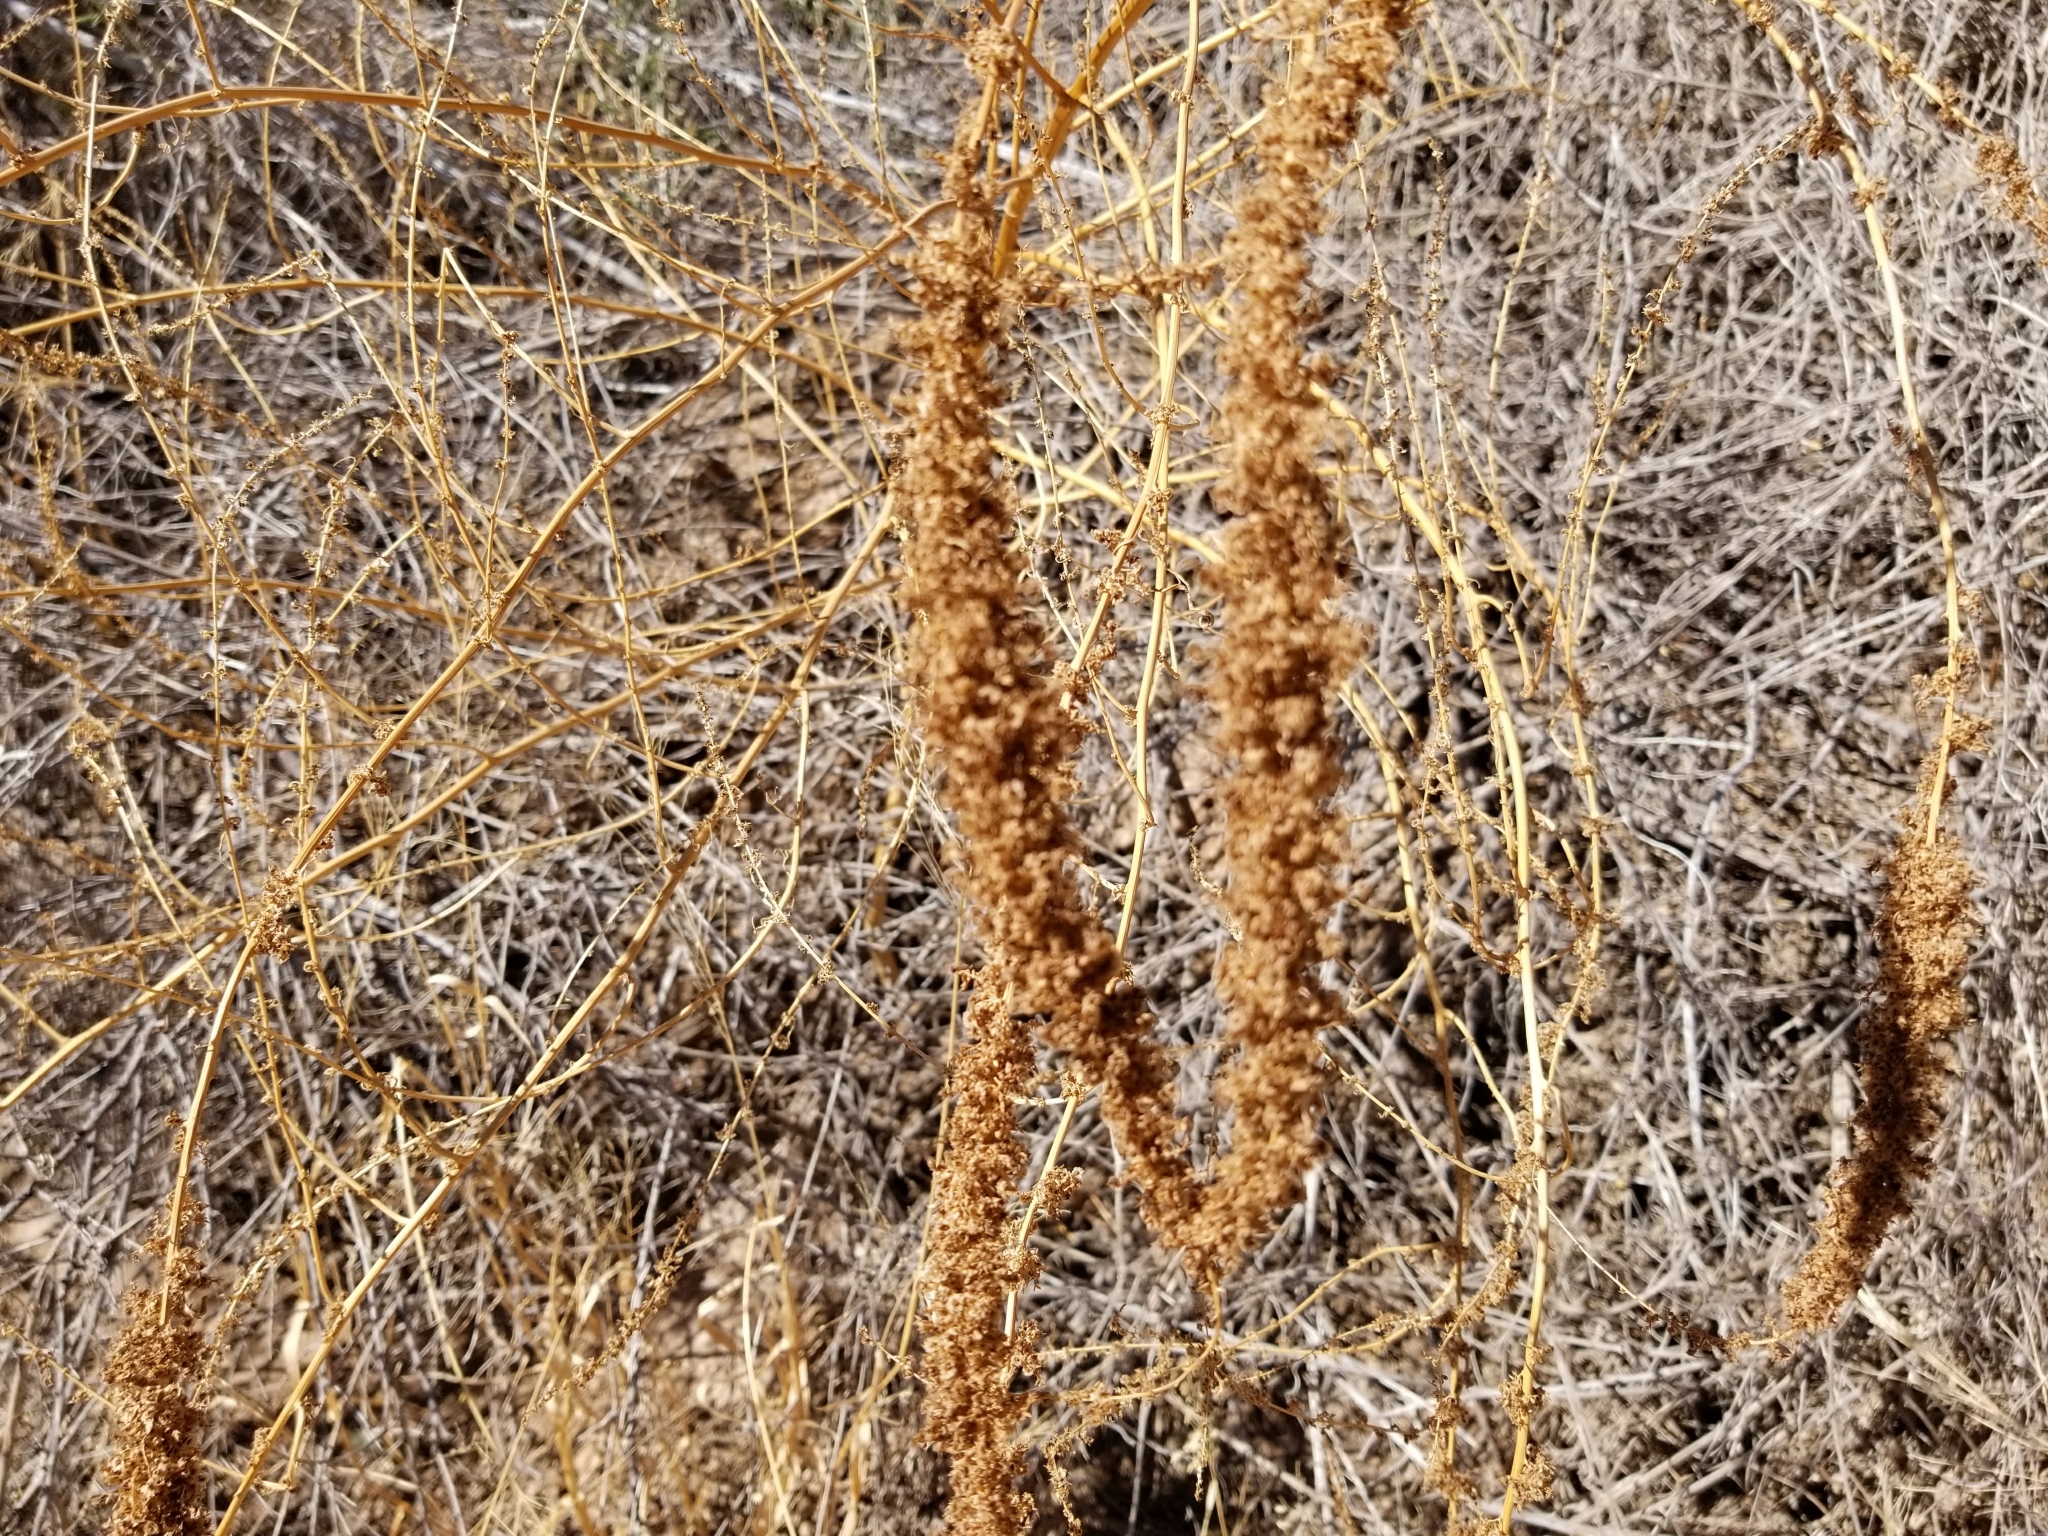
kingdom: Plantae
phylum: Tracheophyta
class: Magnoliopsida
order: Caryophyllales
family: Amaranthaceae
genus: Amaranthus
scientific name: Amaranthus fimbriatus
